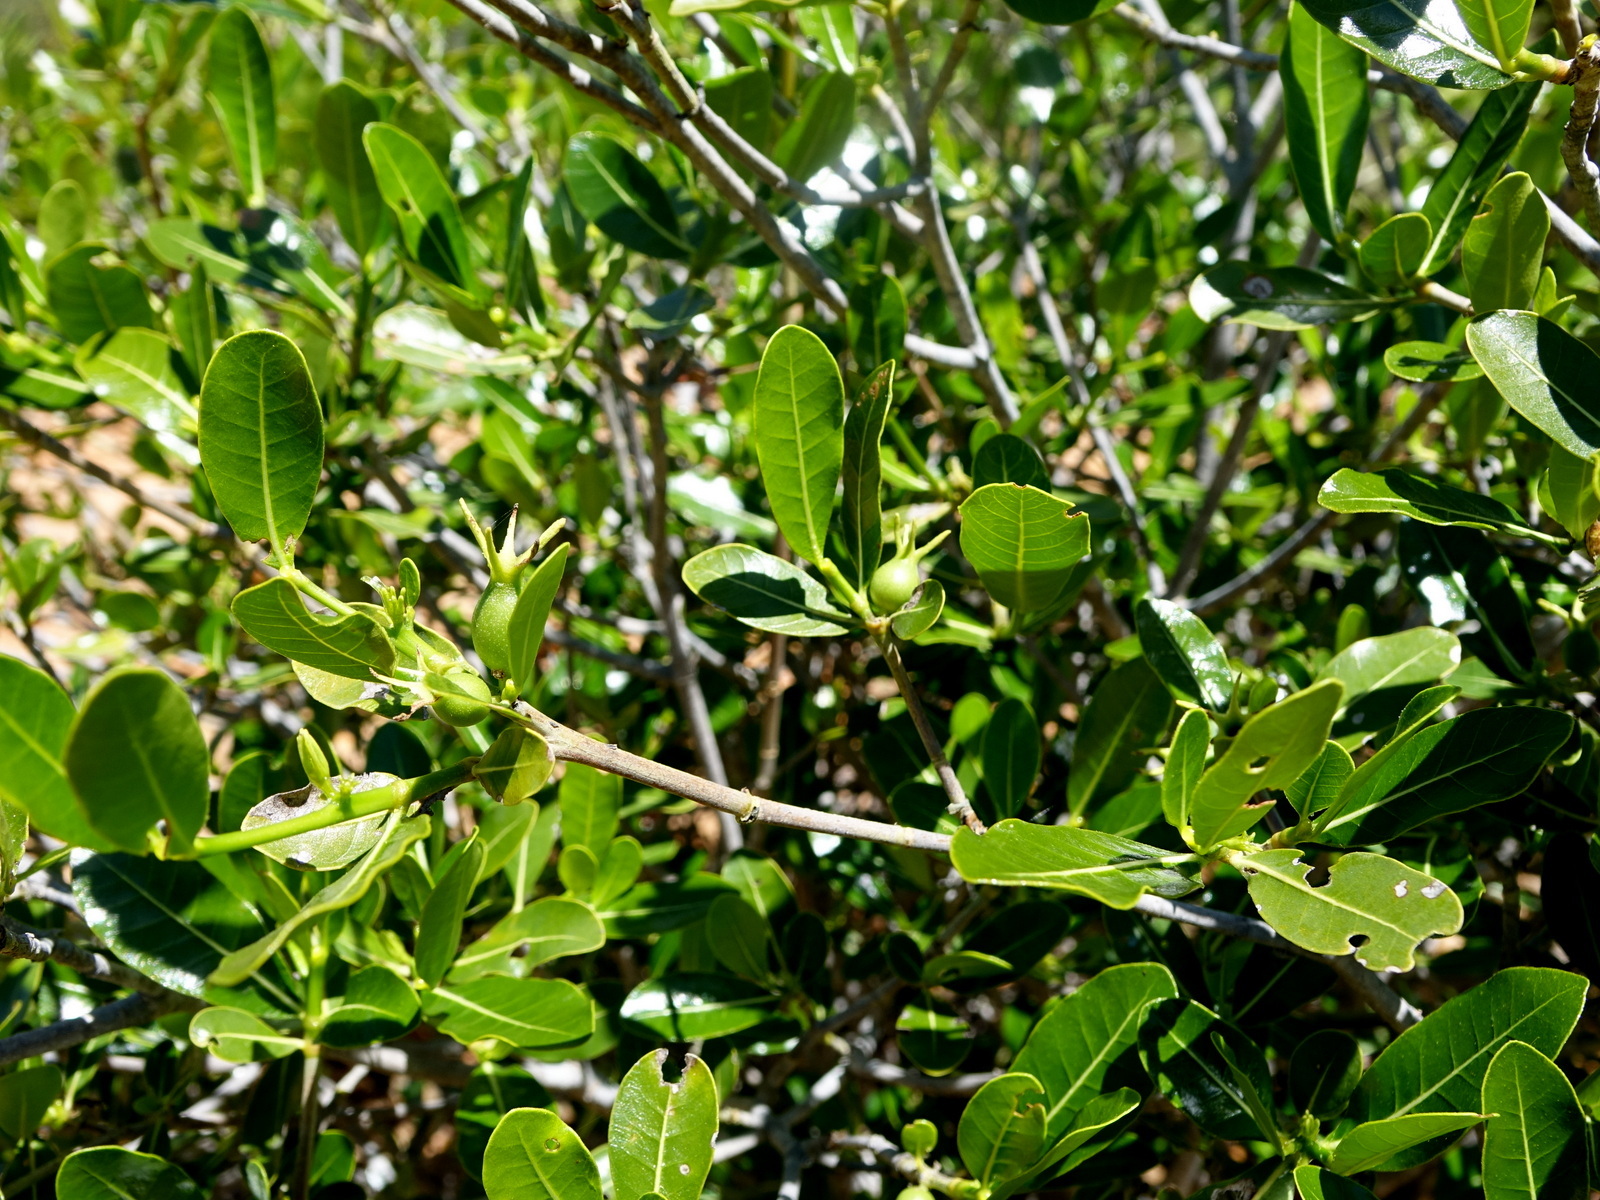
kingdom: Plantae
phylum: Tracheophyta
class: Magnoliopsida
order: Gentianales
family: Rubiaceae
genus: Gardenia
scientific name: Gardenia rutenbergiana
